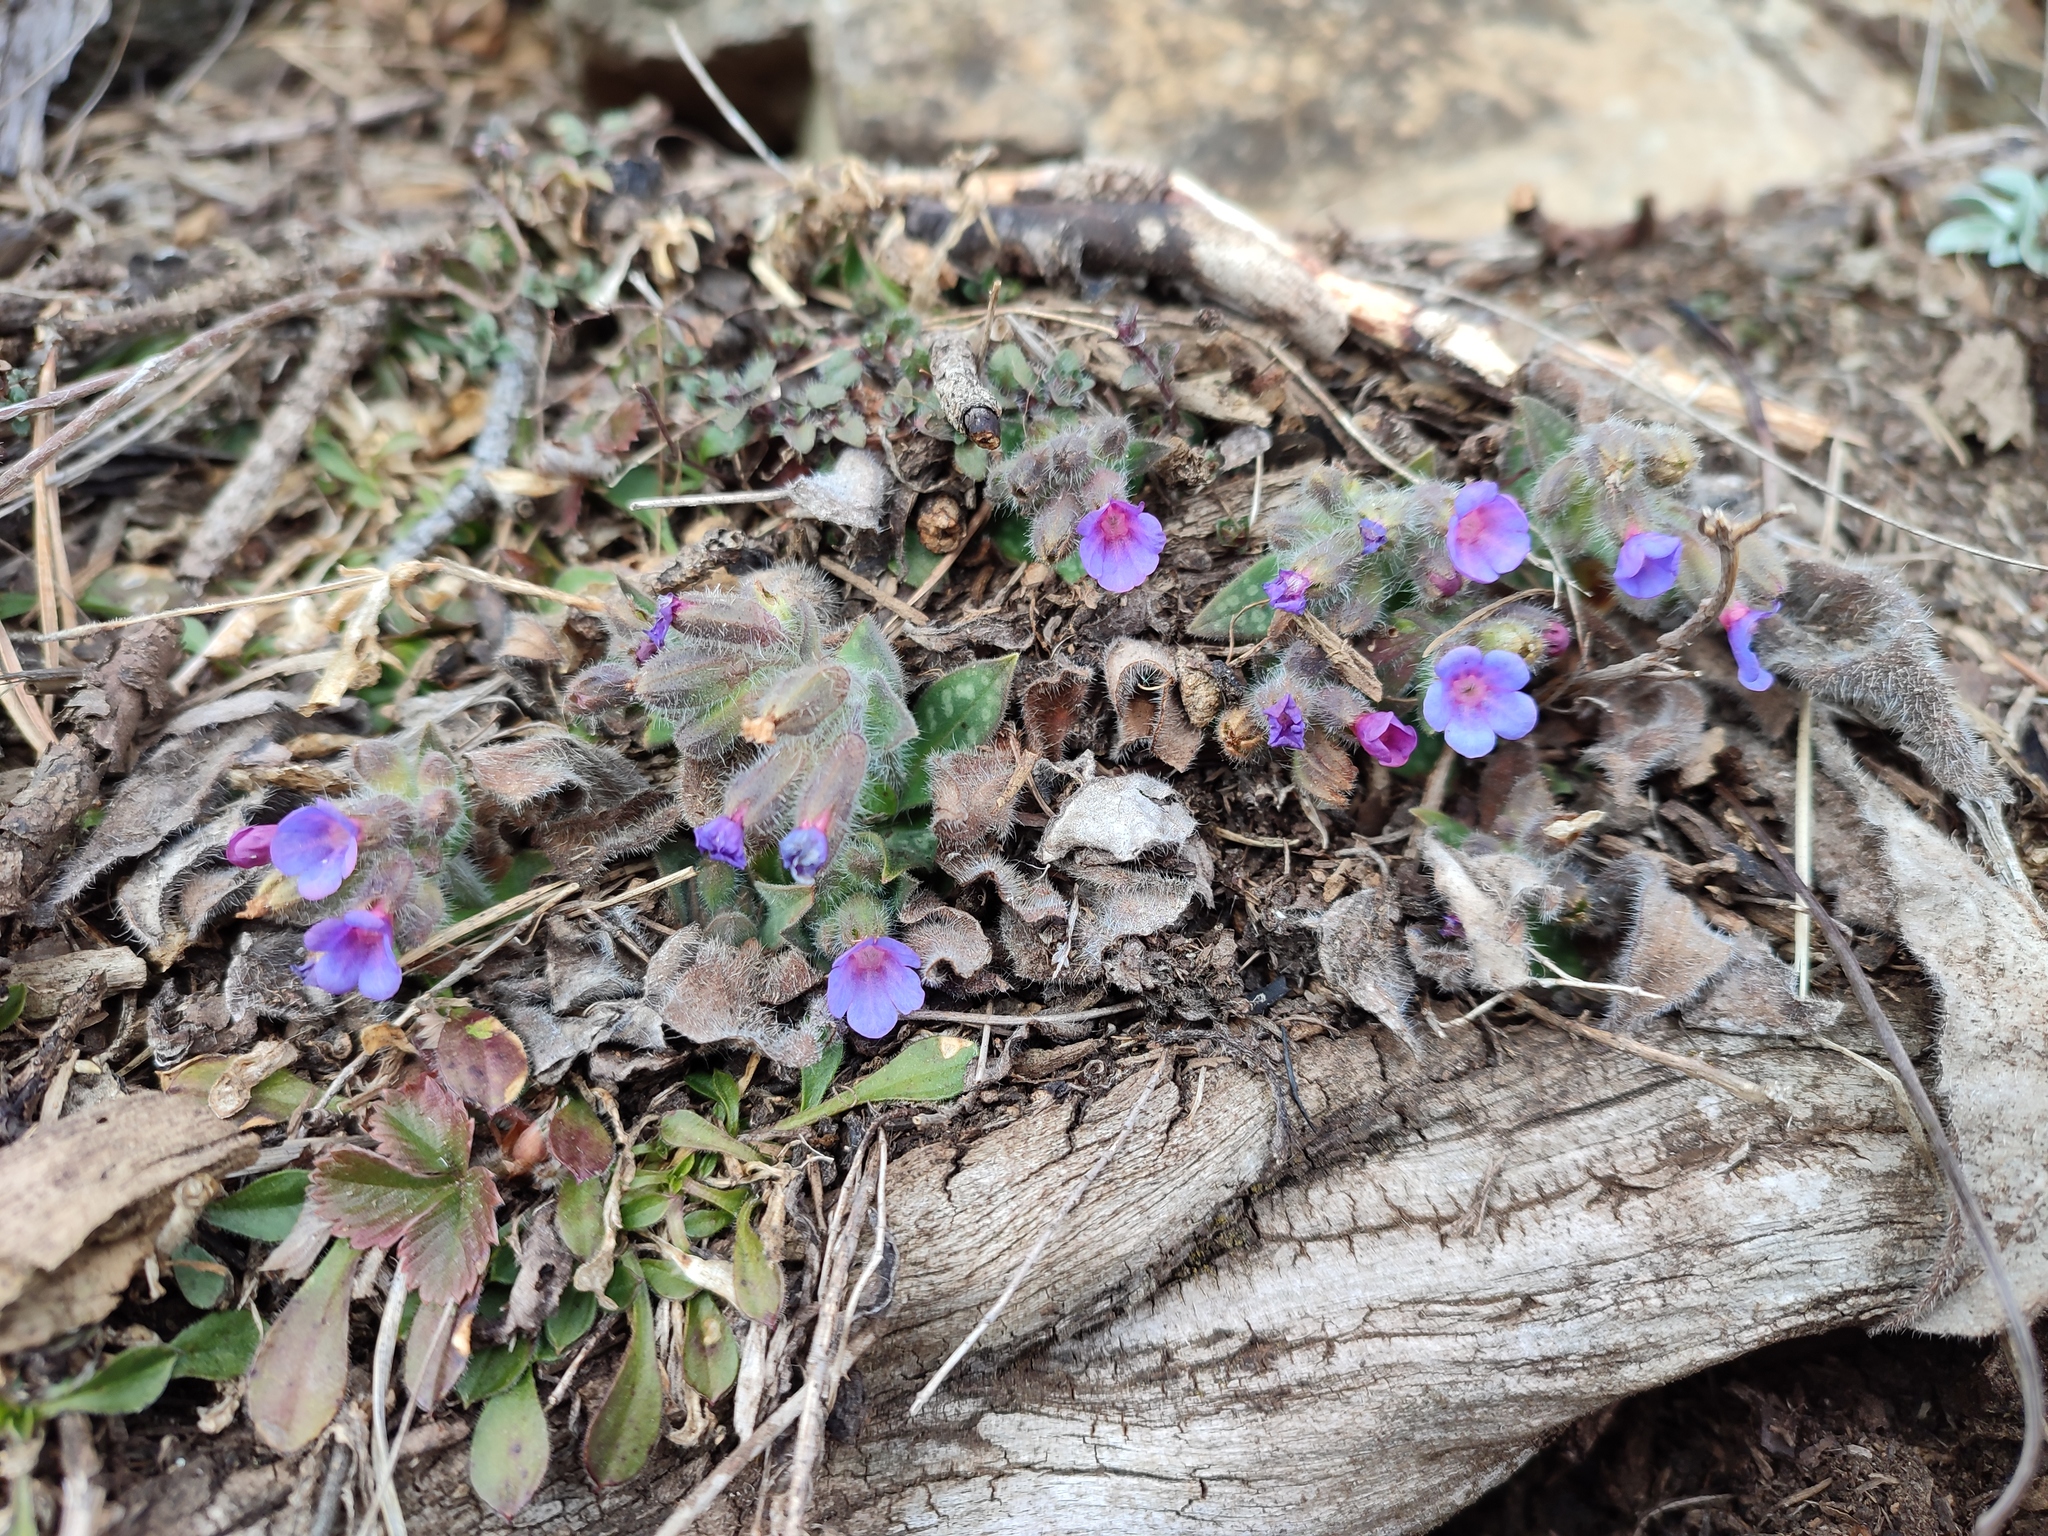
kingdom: Plantae
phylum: Tracheophyta
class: Magnoliopsida
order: Boraginales
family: Boraginaceae
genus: Pulmonaria
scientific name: Pulmonaria stiriaca
